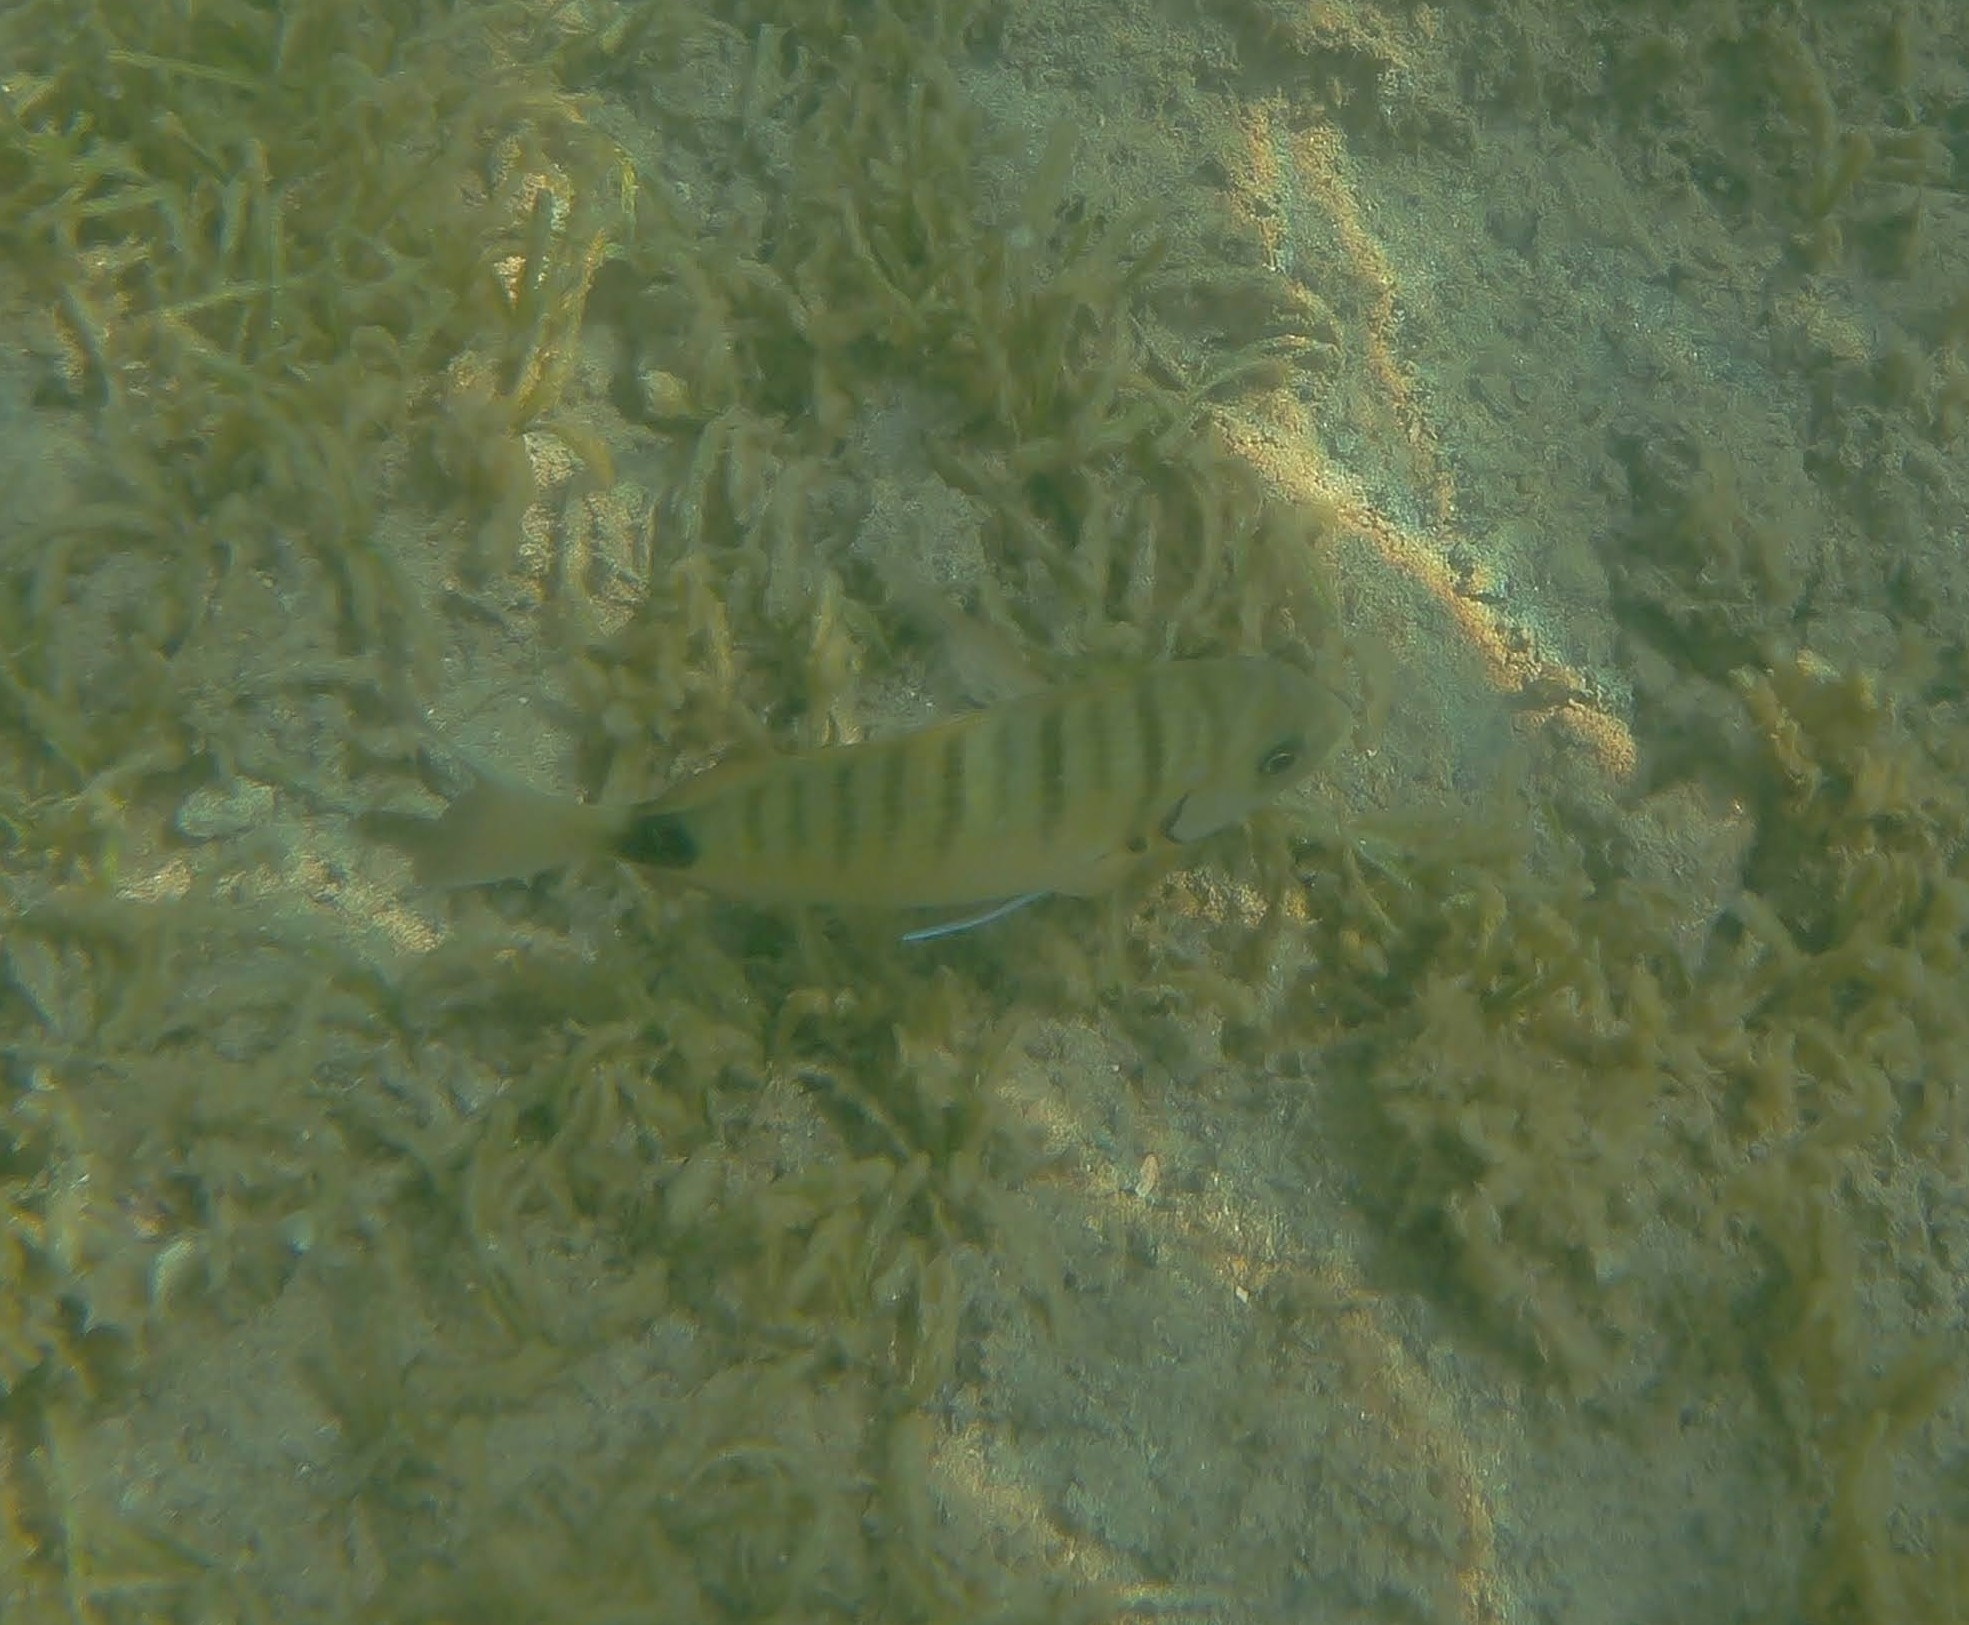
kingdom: Animalia
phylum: Chordata
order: Perciformes
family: Sparidae
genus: Diplodus
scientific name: Diplodus sargus
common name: White seabream
